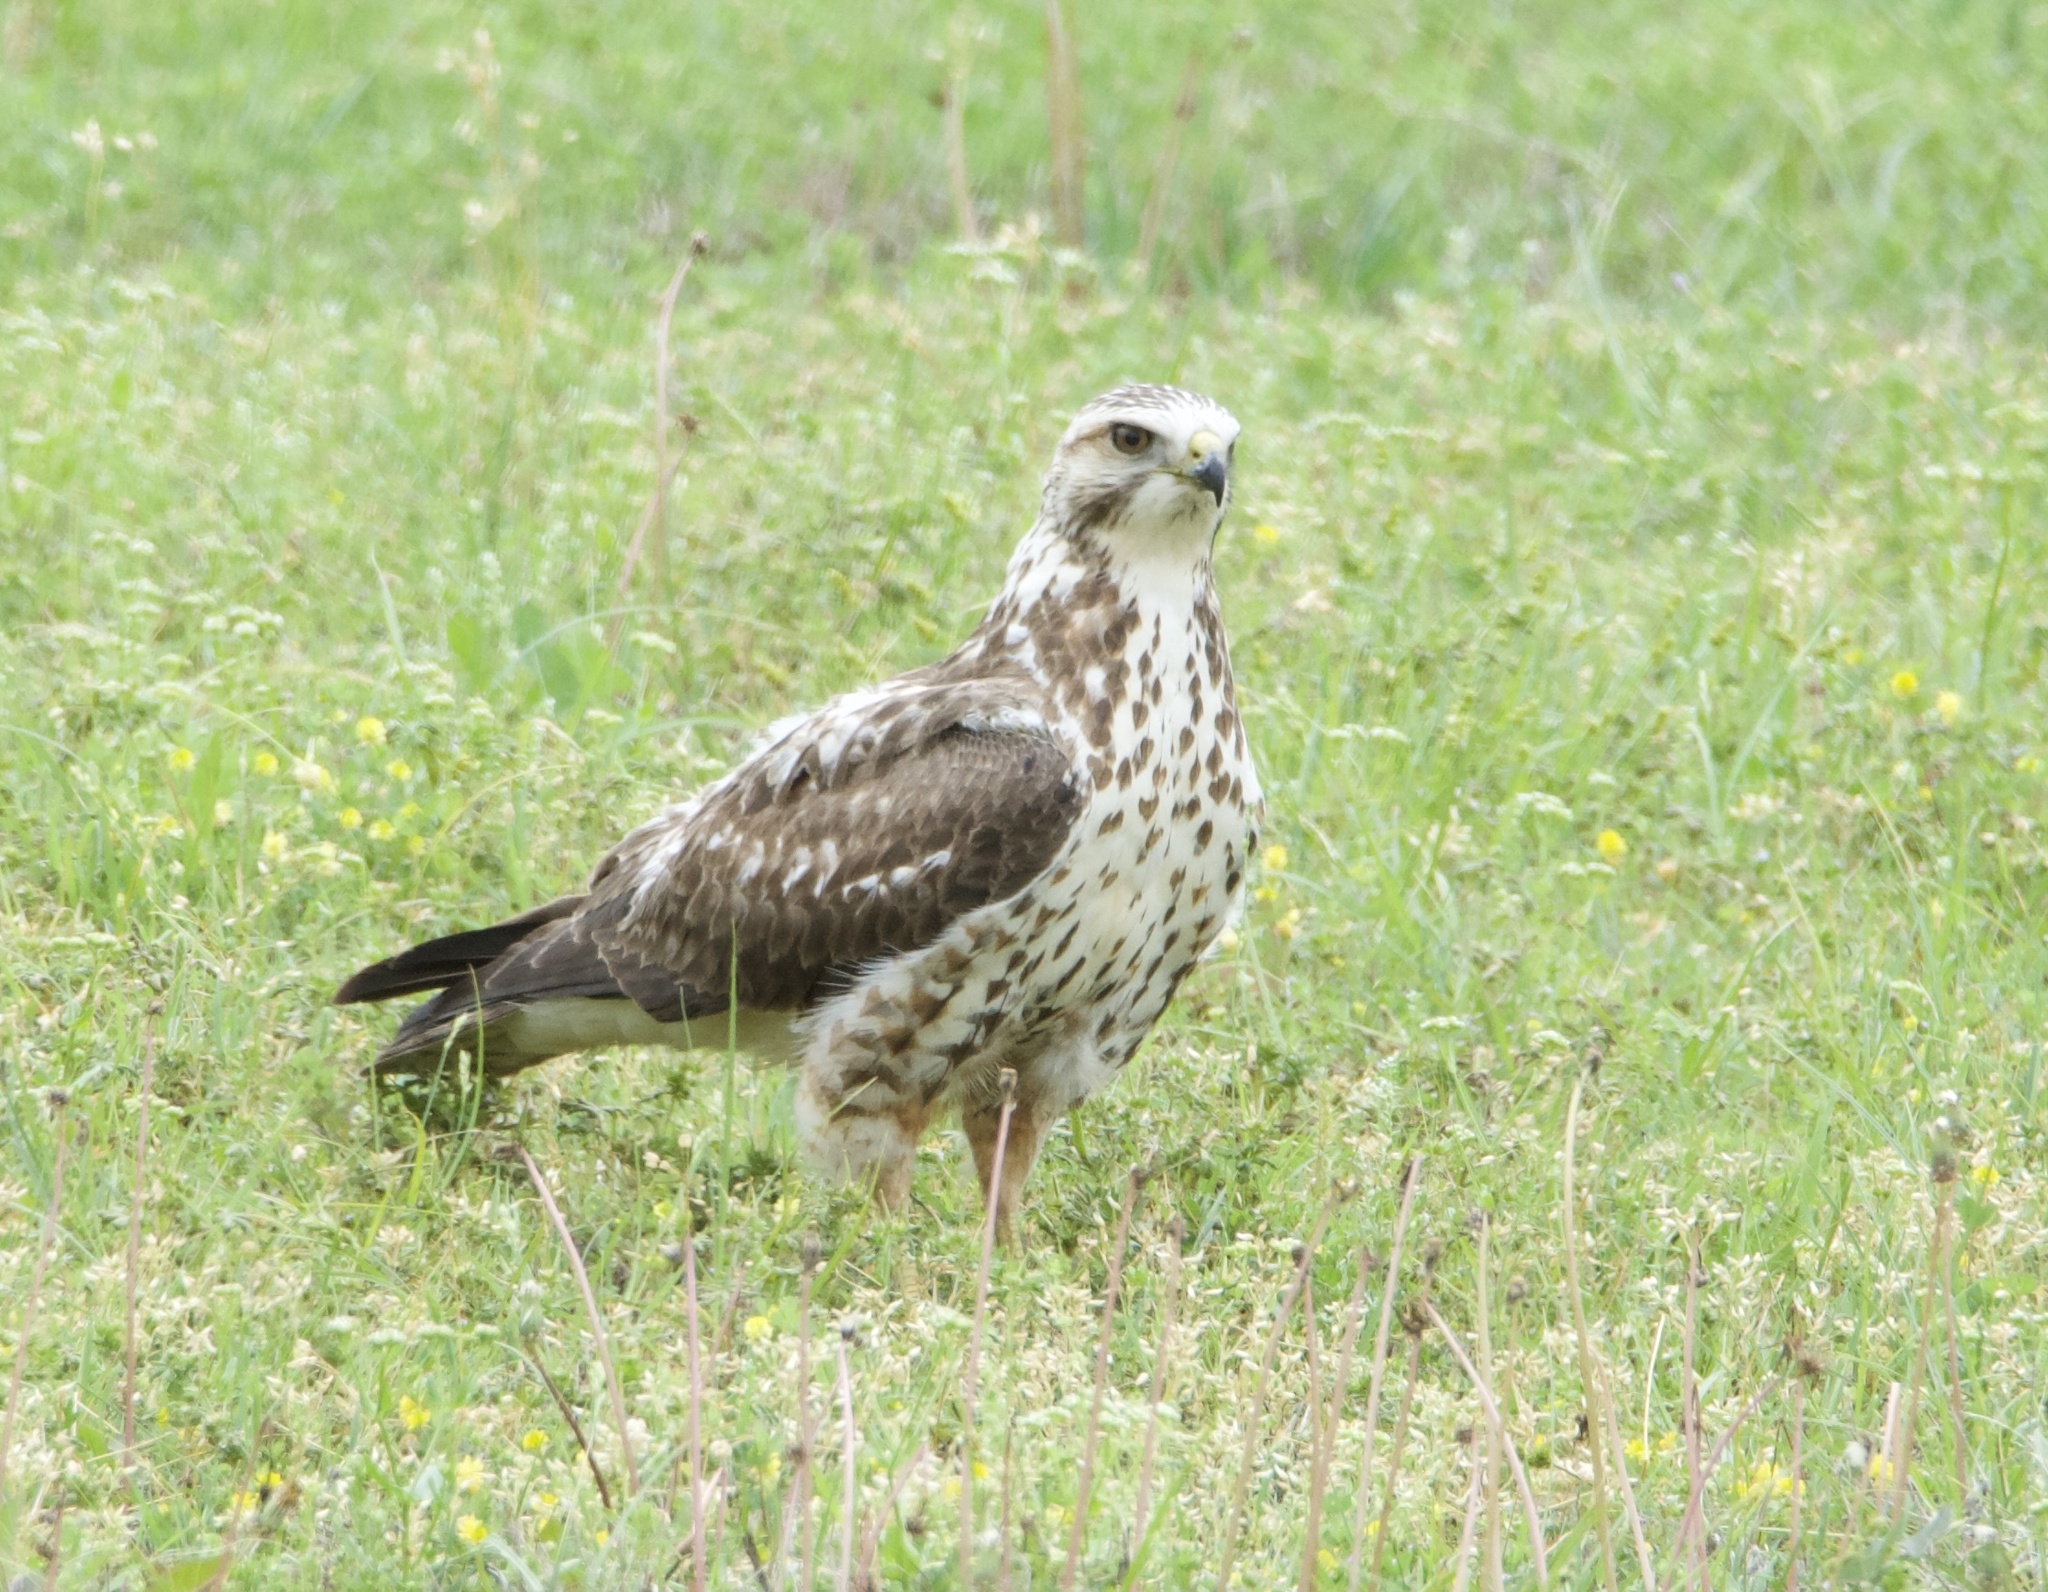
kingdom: Animalia
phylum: Chordata
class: Aves
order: Accipitriformes
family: Accipitridae
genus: Buteo
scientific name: Buteo swainsoni
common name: Swainson's hawk
